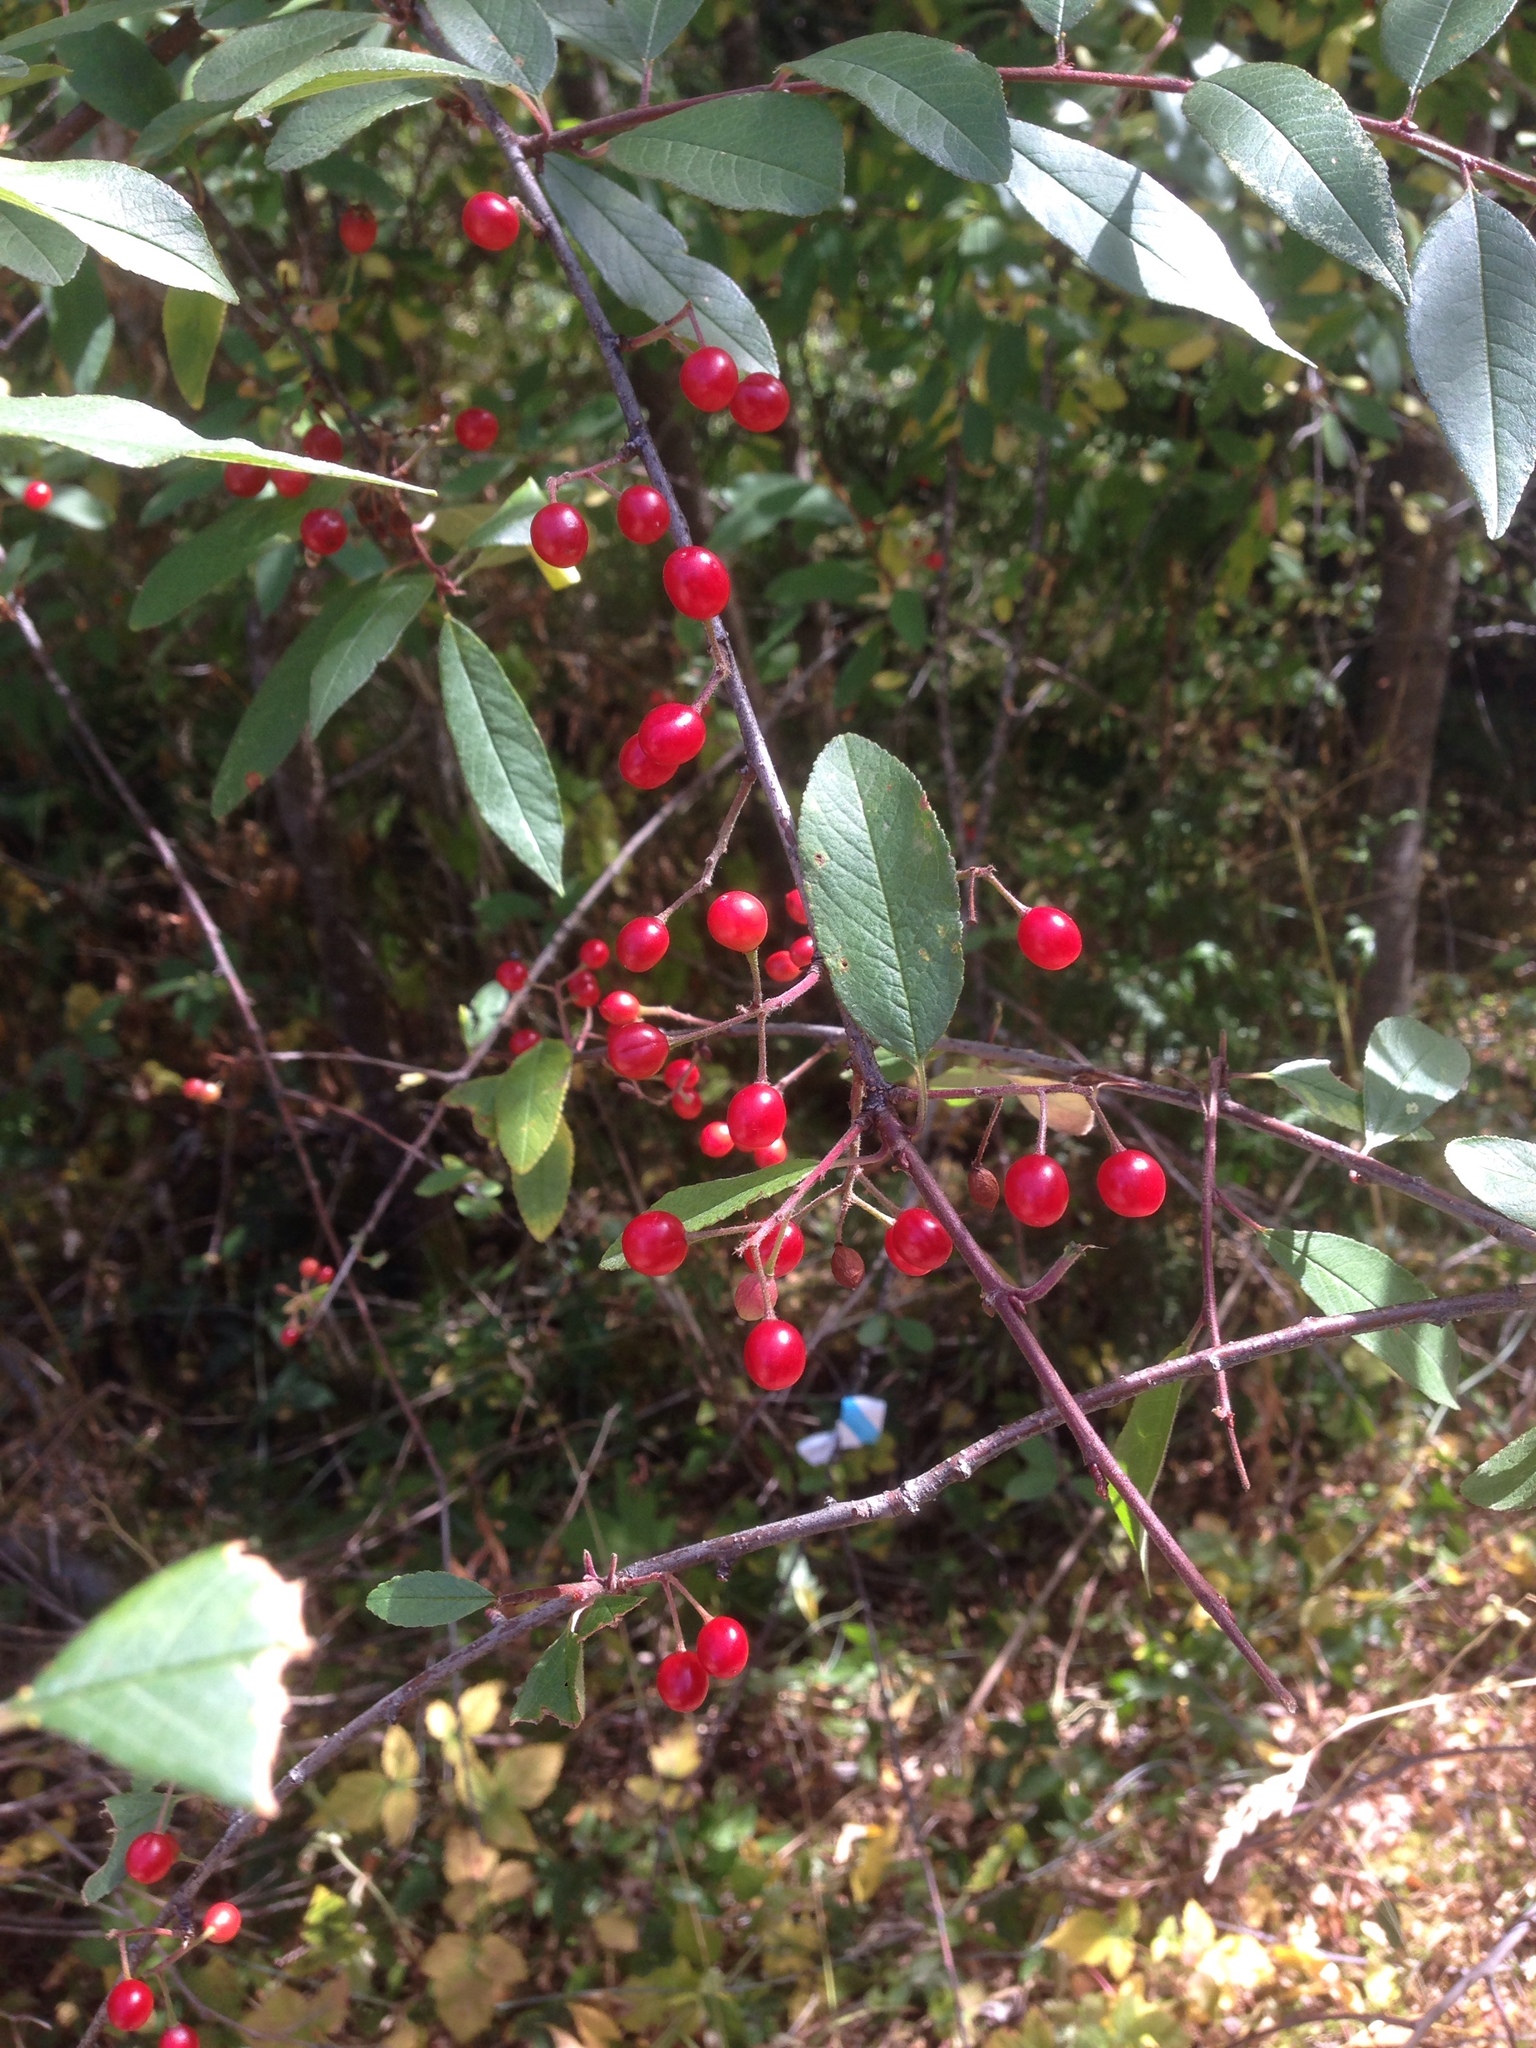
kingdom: Plantae
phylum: Tracheophyta
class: Magnoliopsida
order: Rosales
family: Rosaceae
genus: Prunus
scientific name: Prunus emarginata
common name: Bitter cherry
